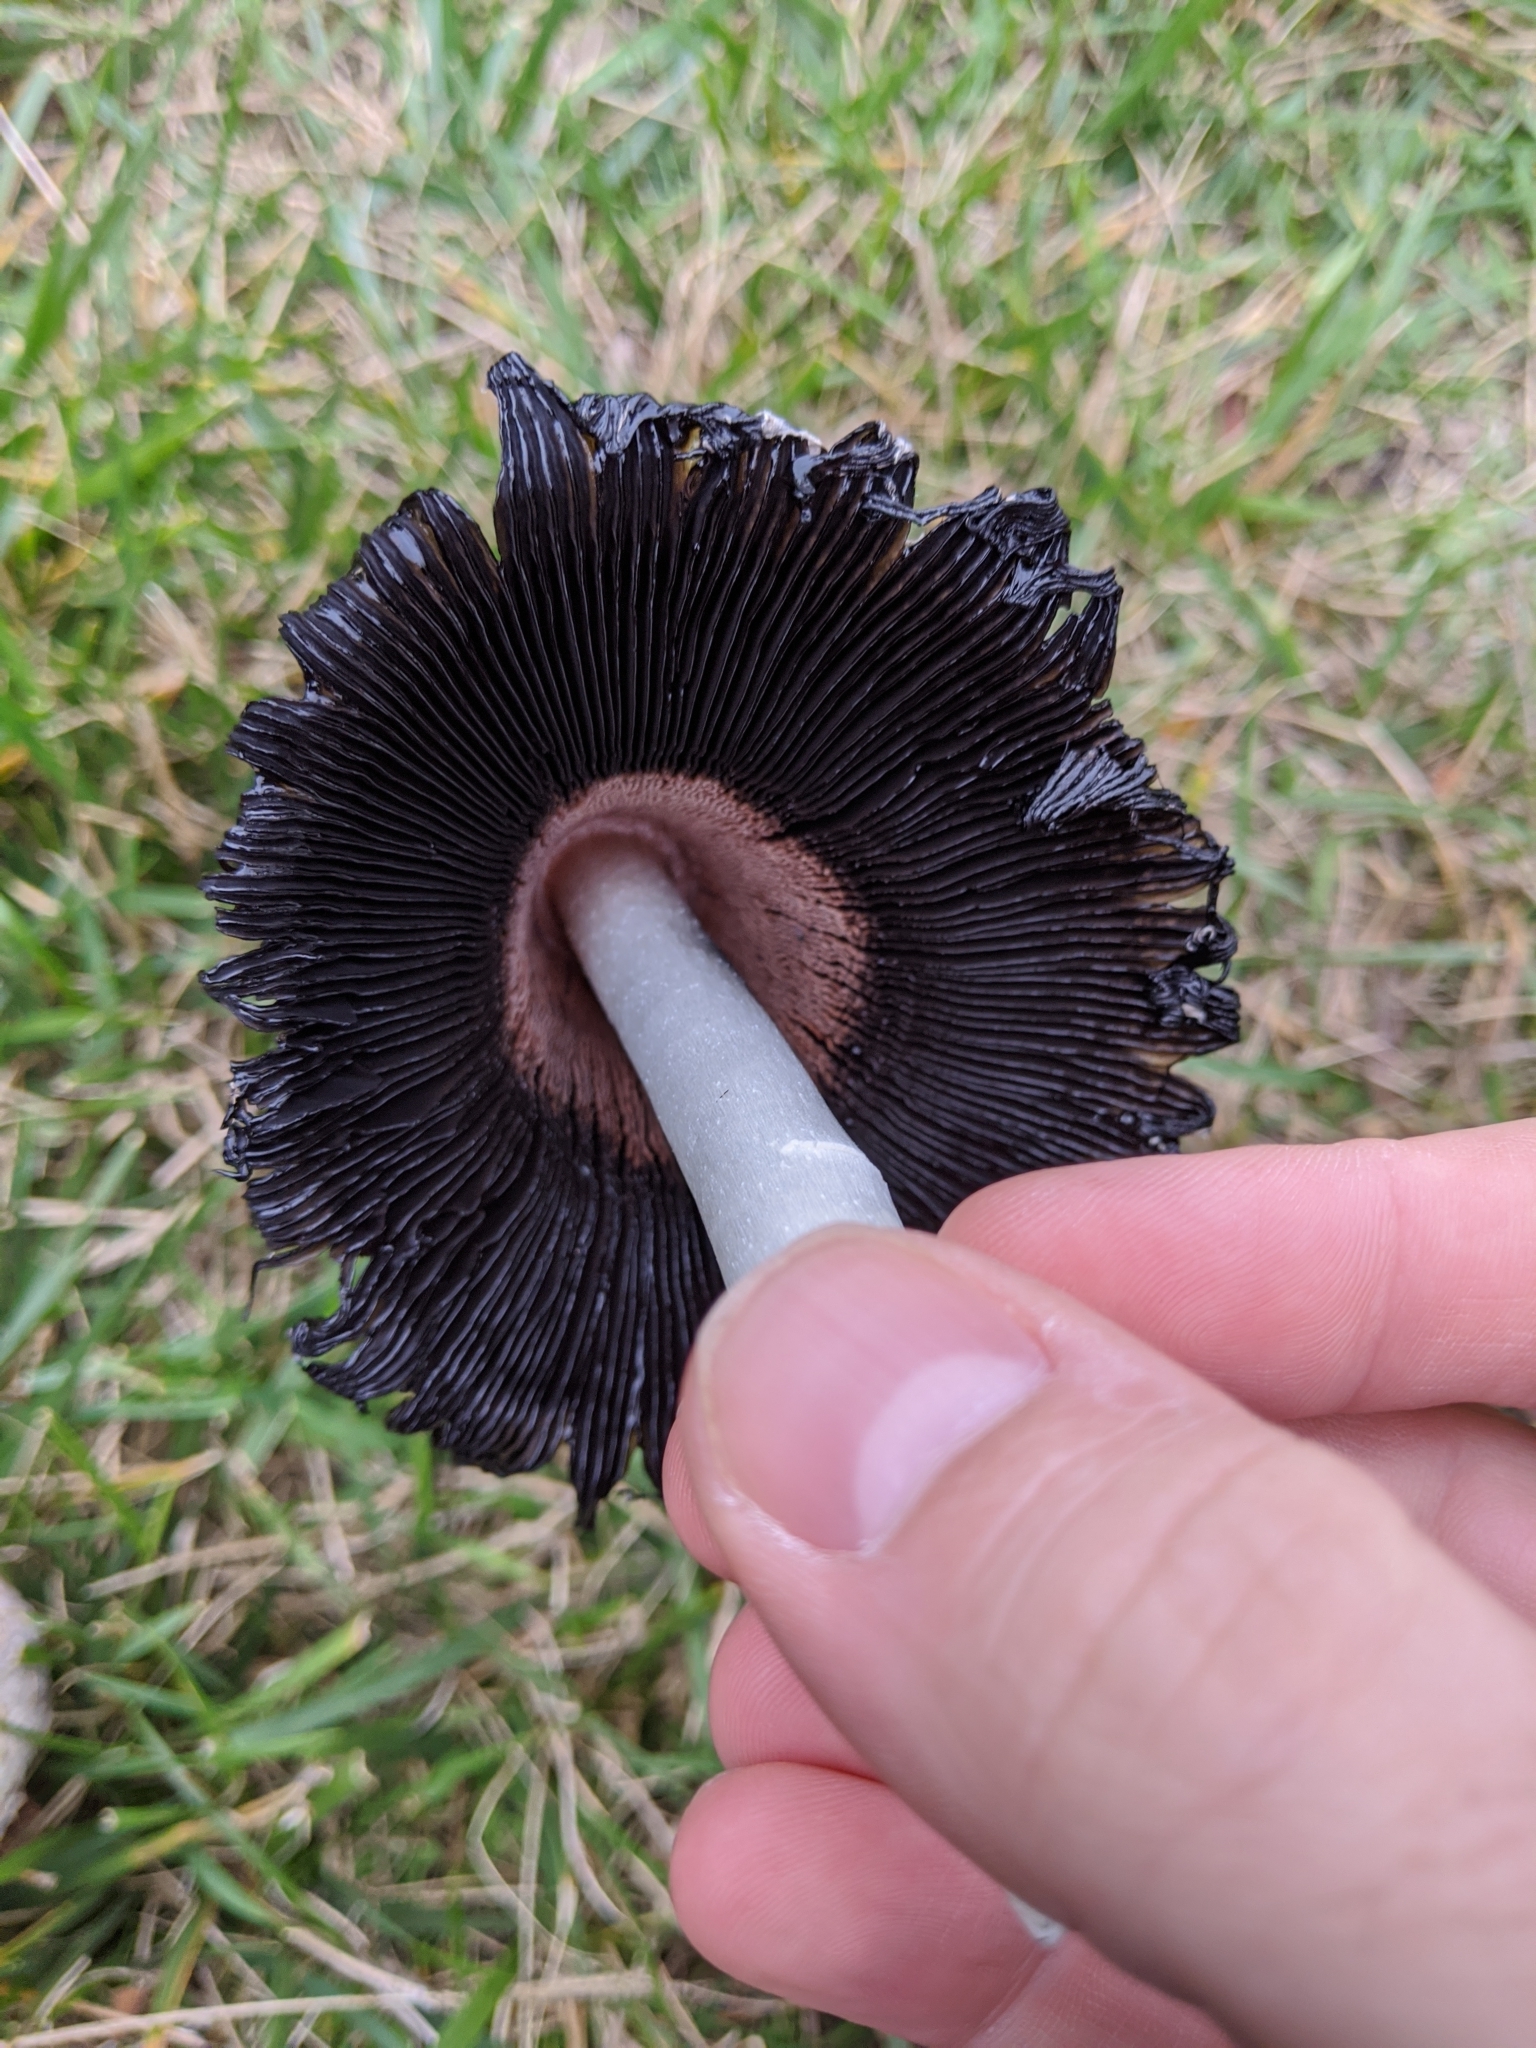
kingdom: Fungi
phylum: Basidiomycota
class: Agaricomycetes
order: Agaricales
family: Agaricaceae
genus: Coprinus
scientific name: Coprinus comatus
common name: Lawyer's wig
